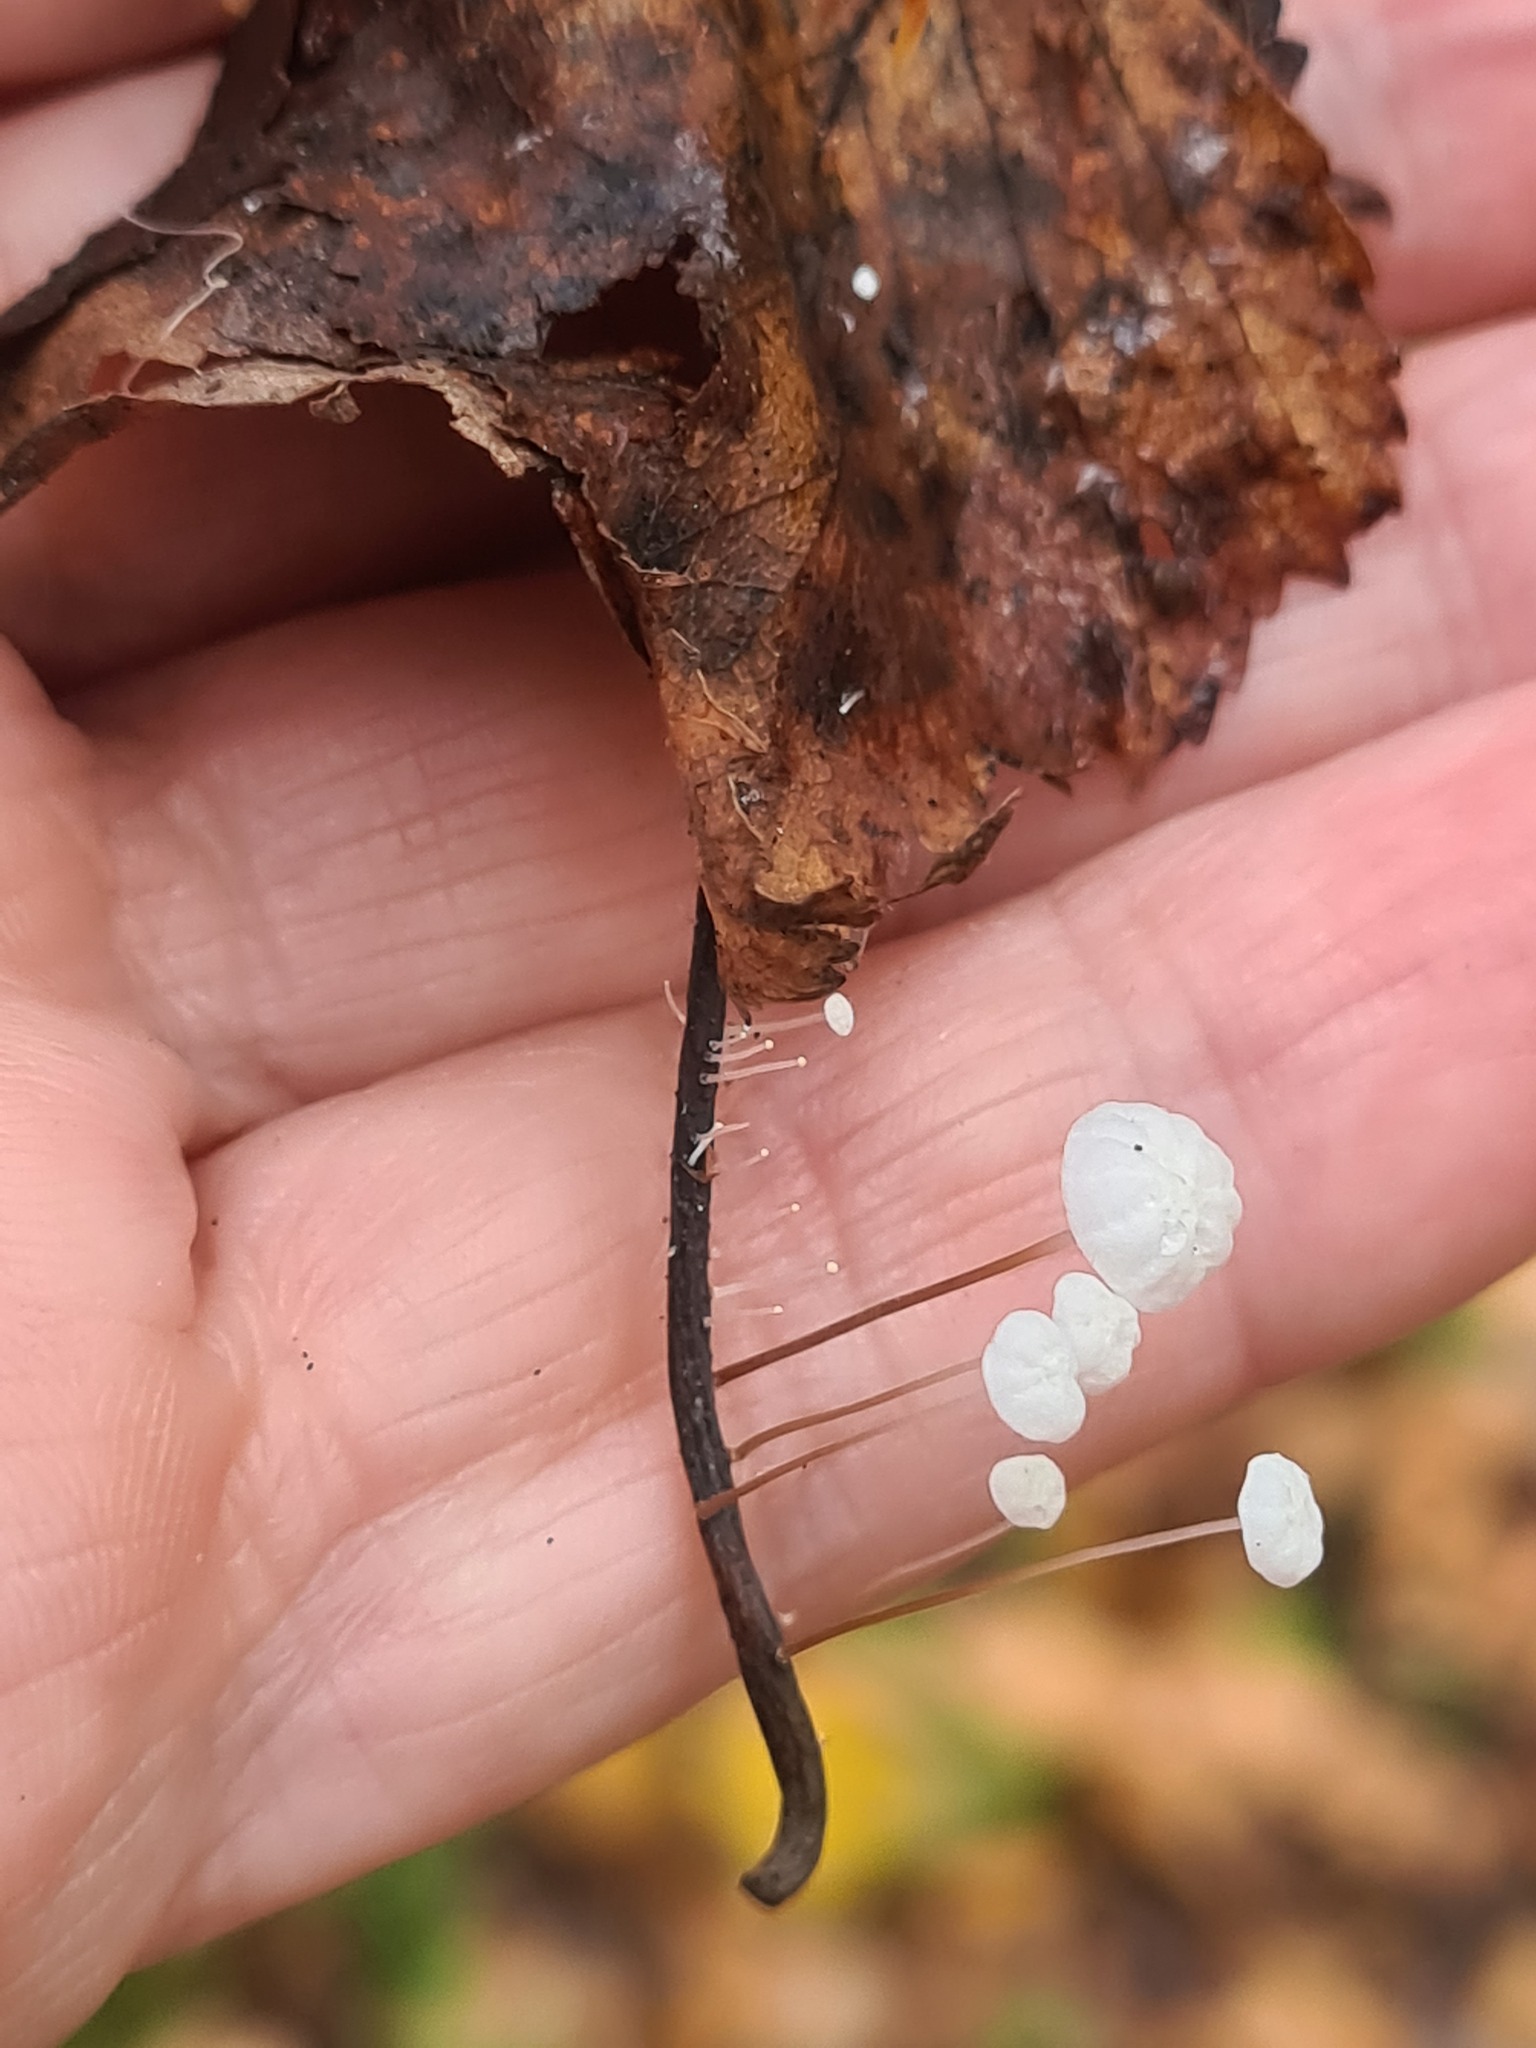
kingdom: Fungi
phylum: Basidiomycota
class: Agaricomycetes
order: Agaricales
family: Physalacriaceae
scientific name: Physalacriaceae
